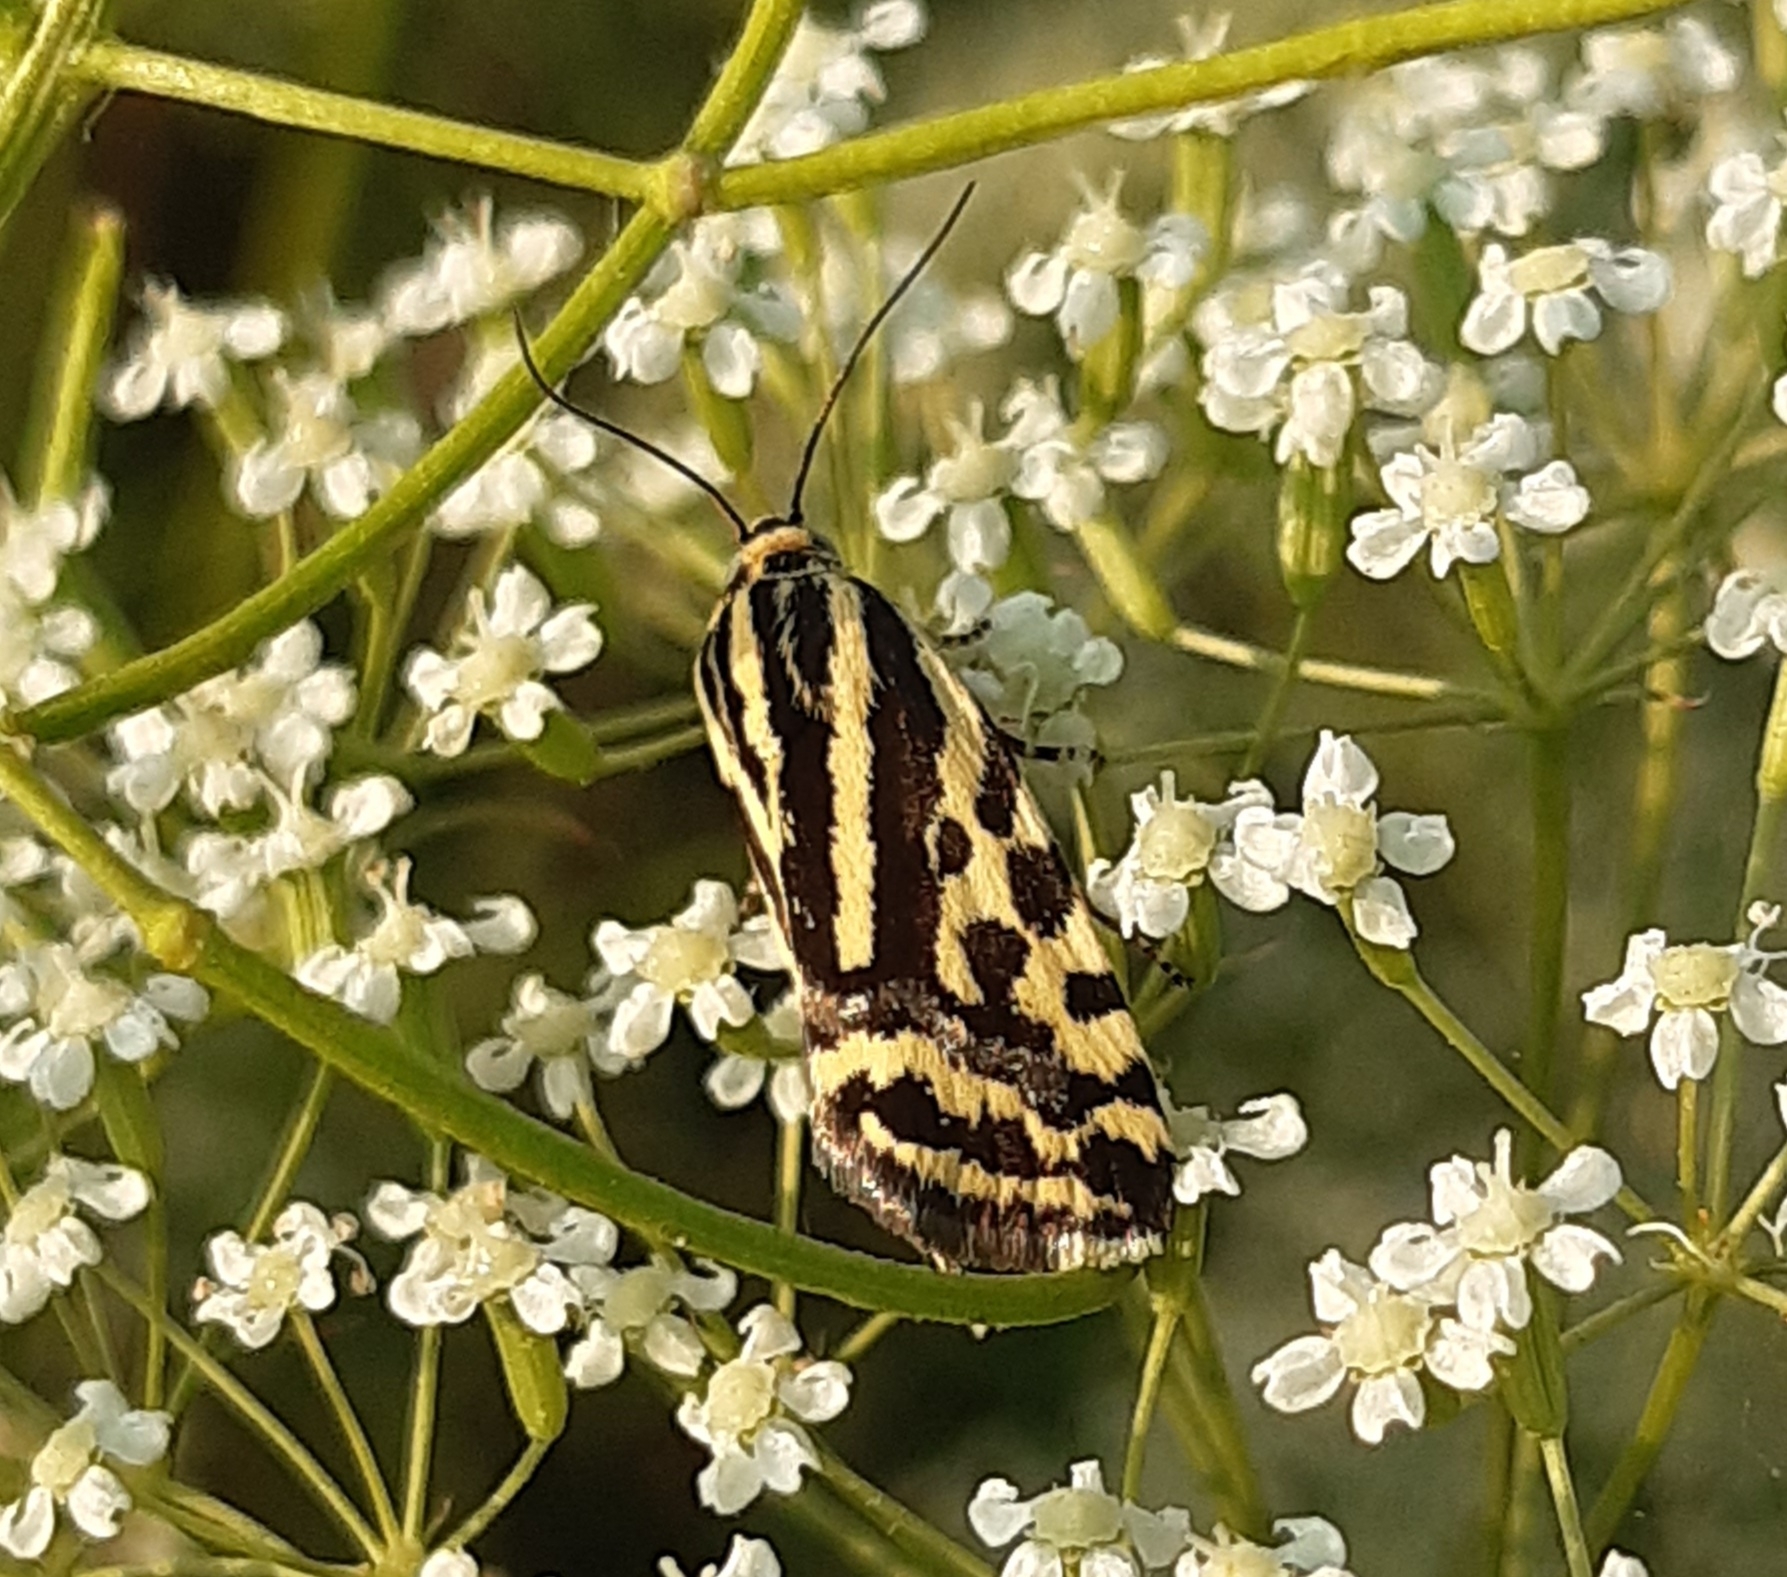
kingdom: Animalia
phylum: Arthropoda
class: Insecta
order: Lepidoptera
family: Noctuidae
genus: Acontia
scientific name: Acontia trabealis
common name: Spotted sulphur
